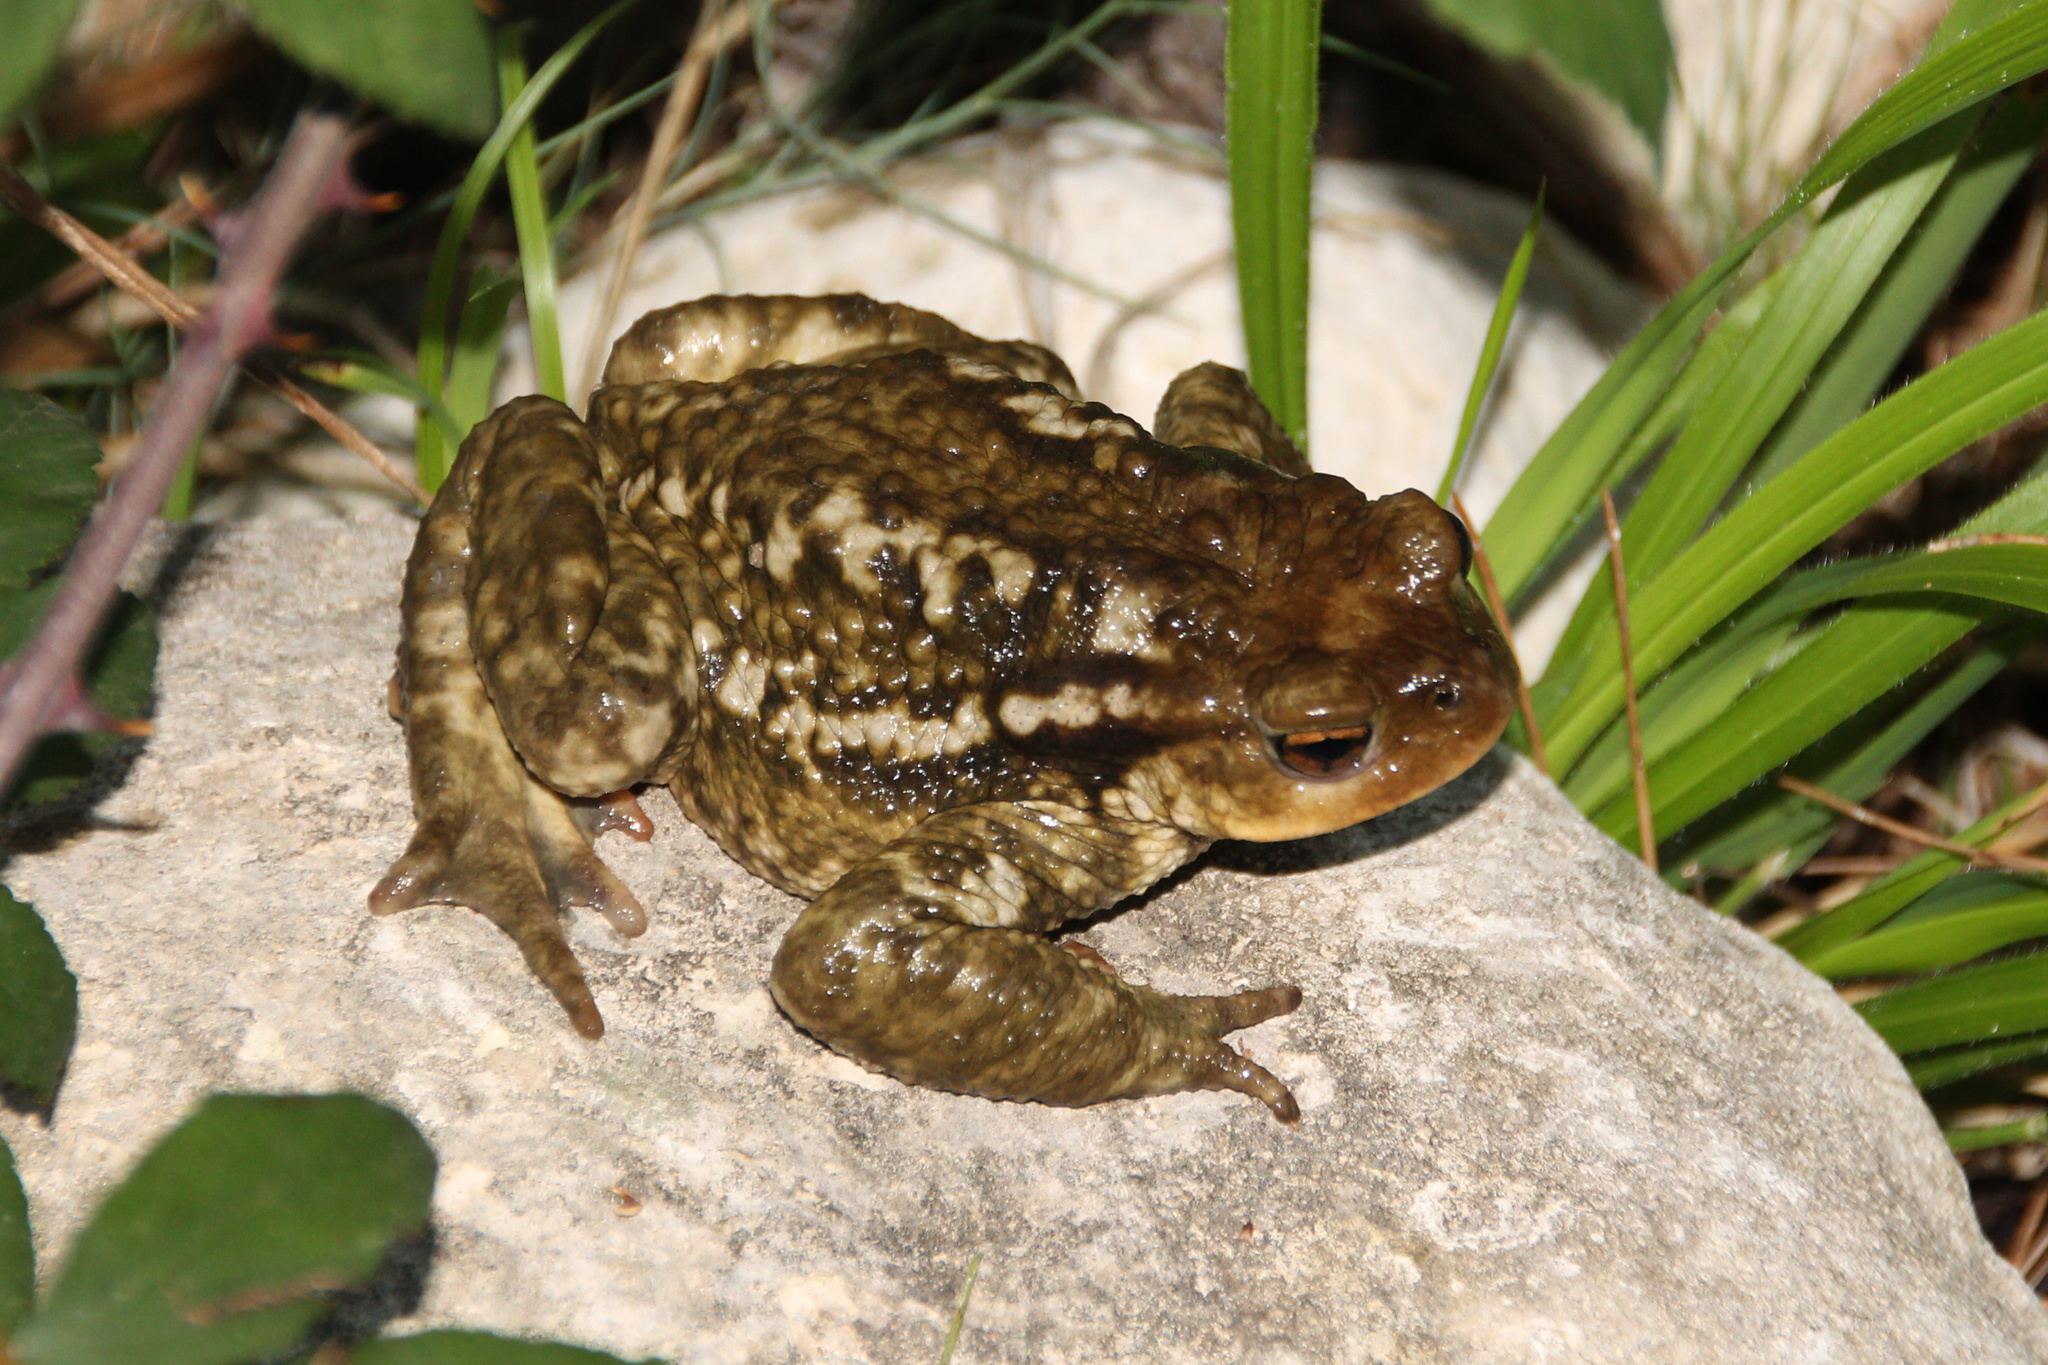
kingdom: Animalia
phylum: Chordata
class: Amphibia
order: Anura
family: Bufonidae
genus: Bufo
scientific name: Bufo spinosus
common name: Western common toad
